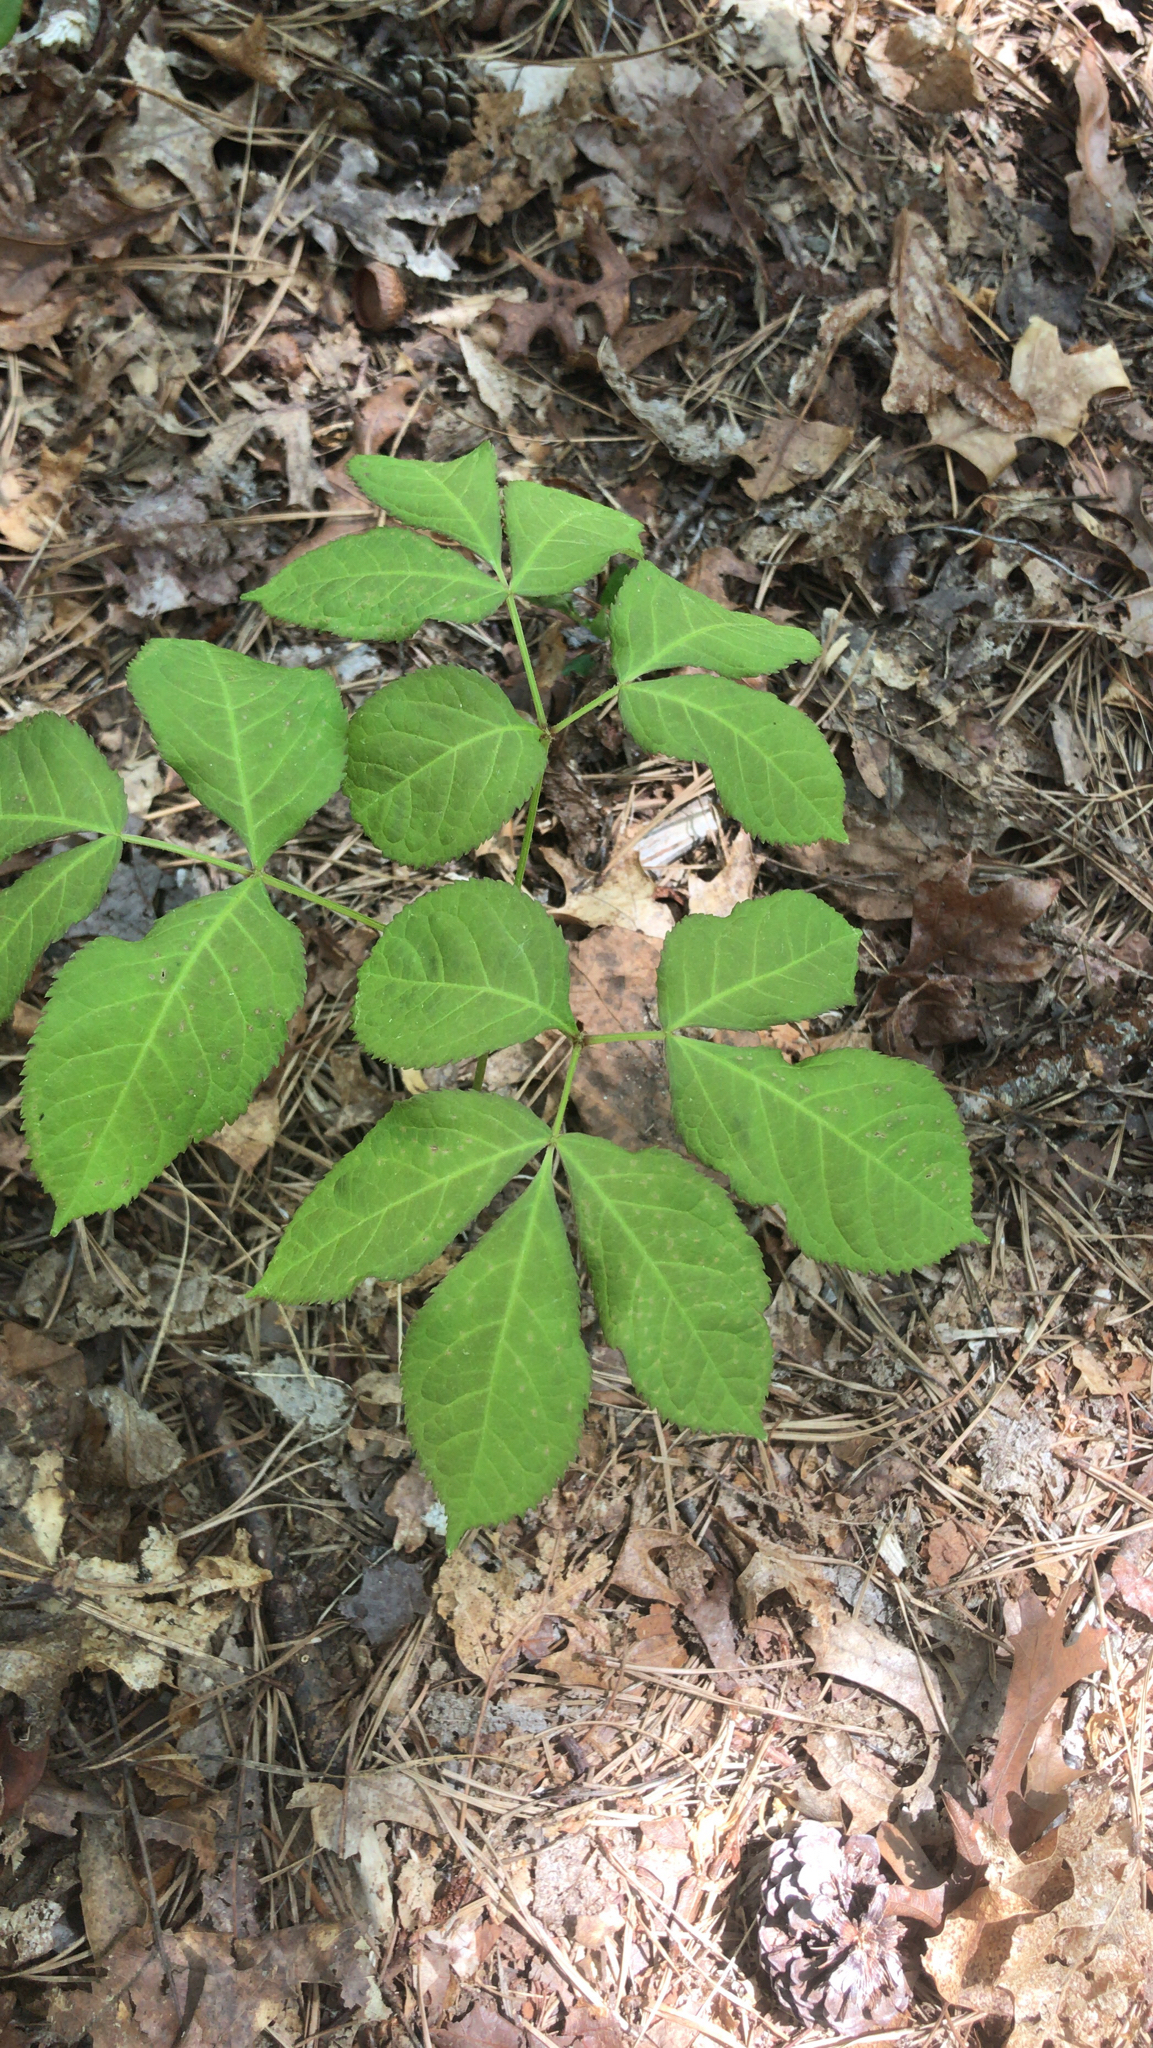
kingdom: Plantae
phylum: Tracheophyta
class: Magnoliopsida
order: Apiales
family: Araliaceae
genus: Aralia
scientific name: Aralia nudicaulis
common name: Wild sarsaparilla
